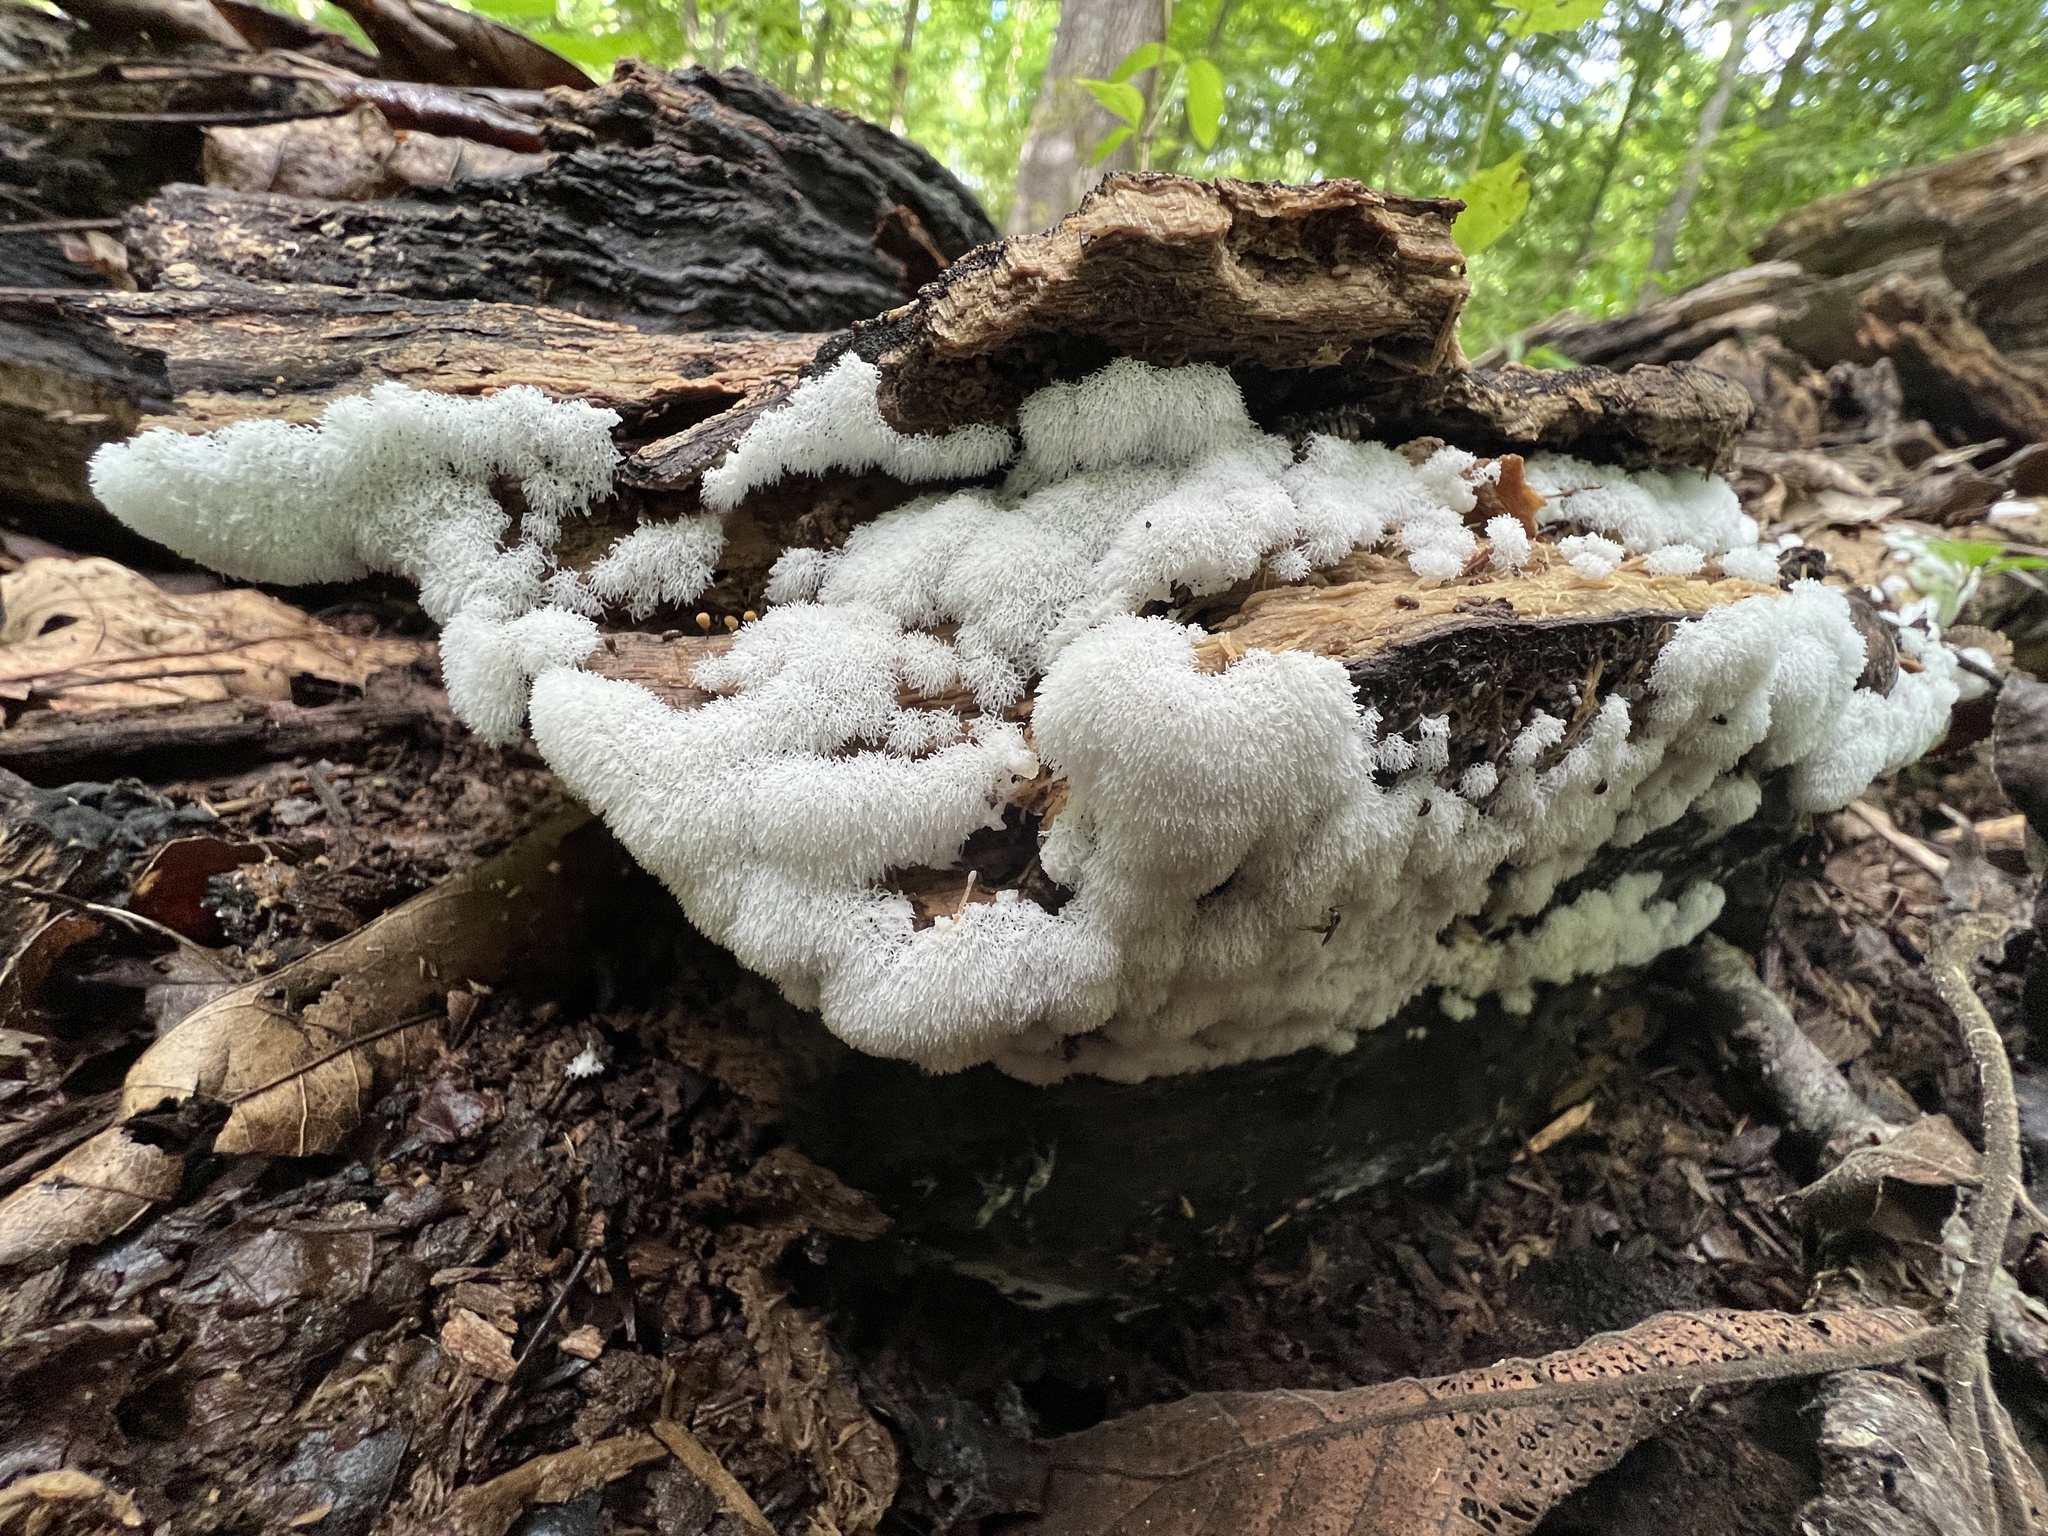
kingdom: Protozoa
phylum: Mycetozoa
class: Protosteliomycetes
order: Ceratiomyxales
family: Ceratiomyxaceae
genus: Ceratiomyxa
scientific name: Ceratiomyxa fruticulosa
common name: Honeycomb coral slime mold
